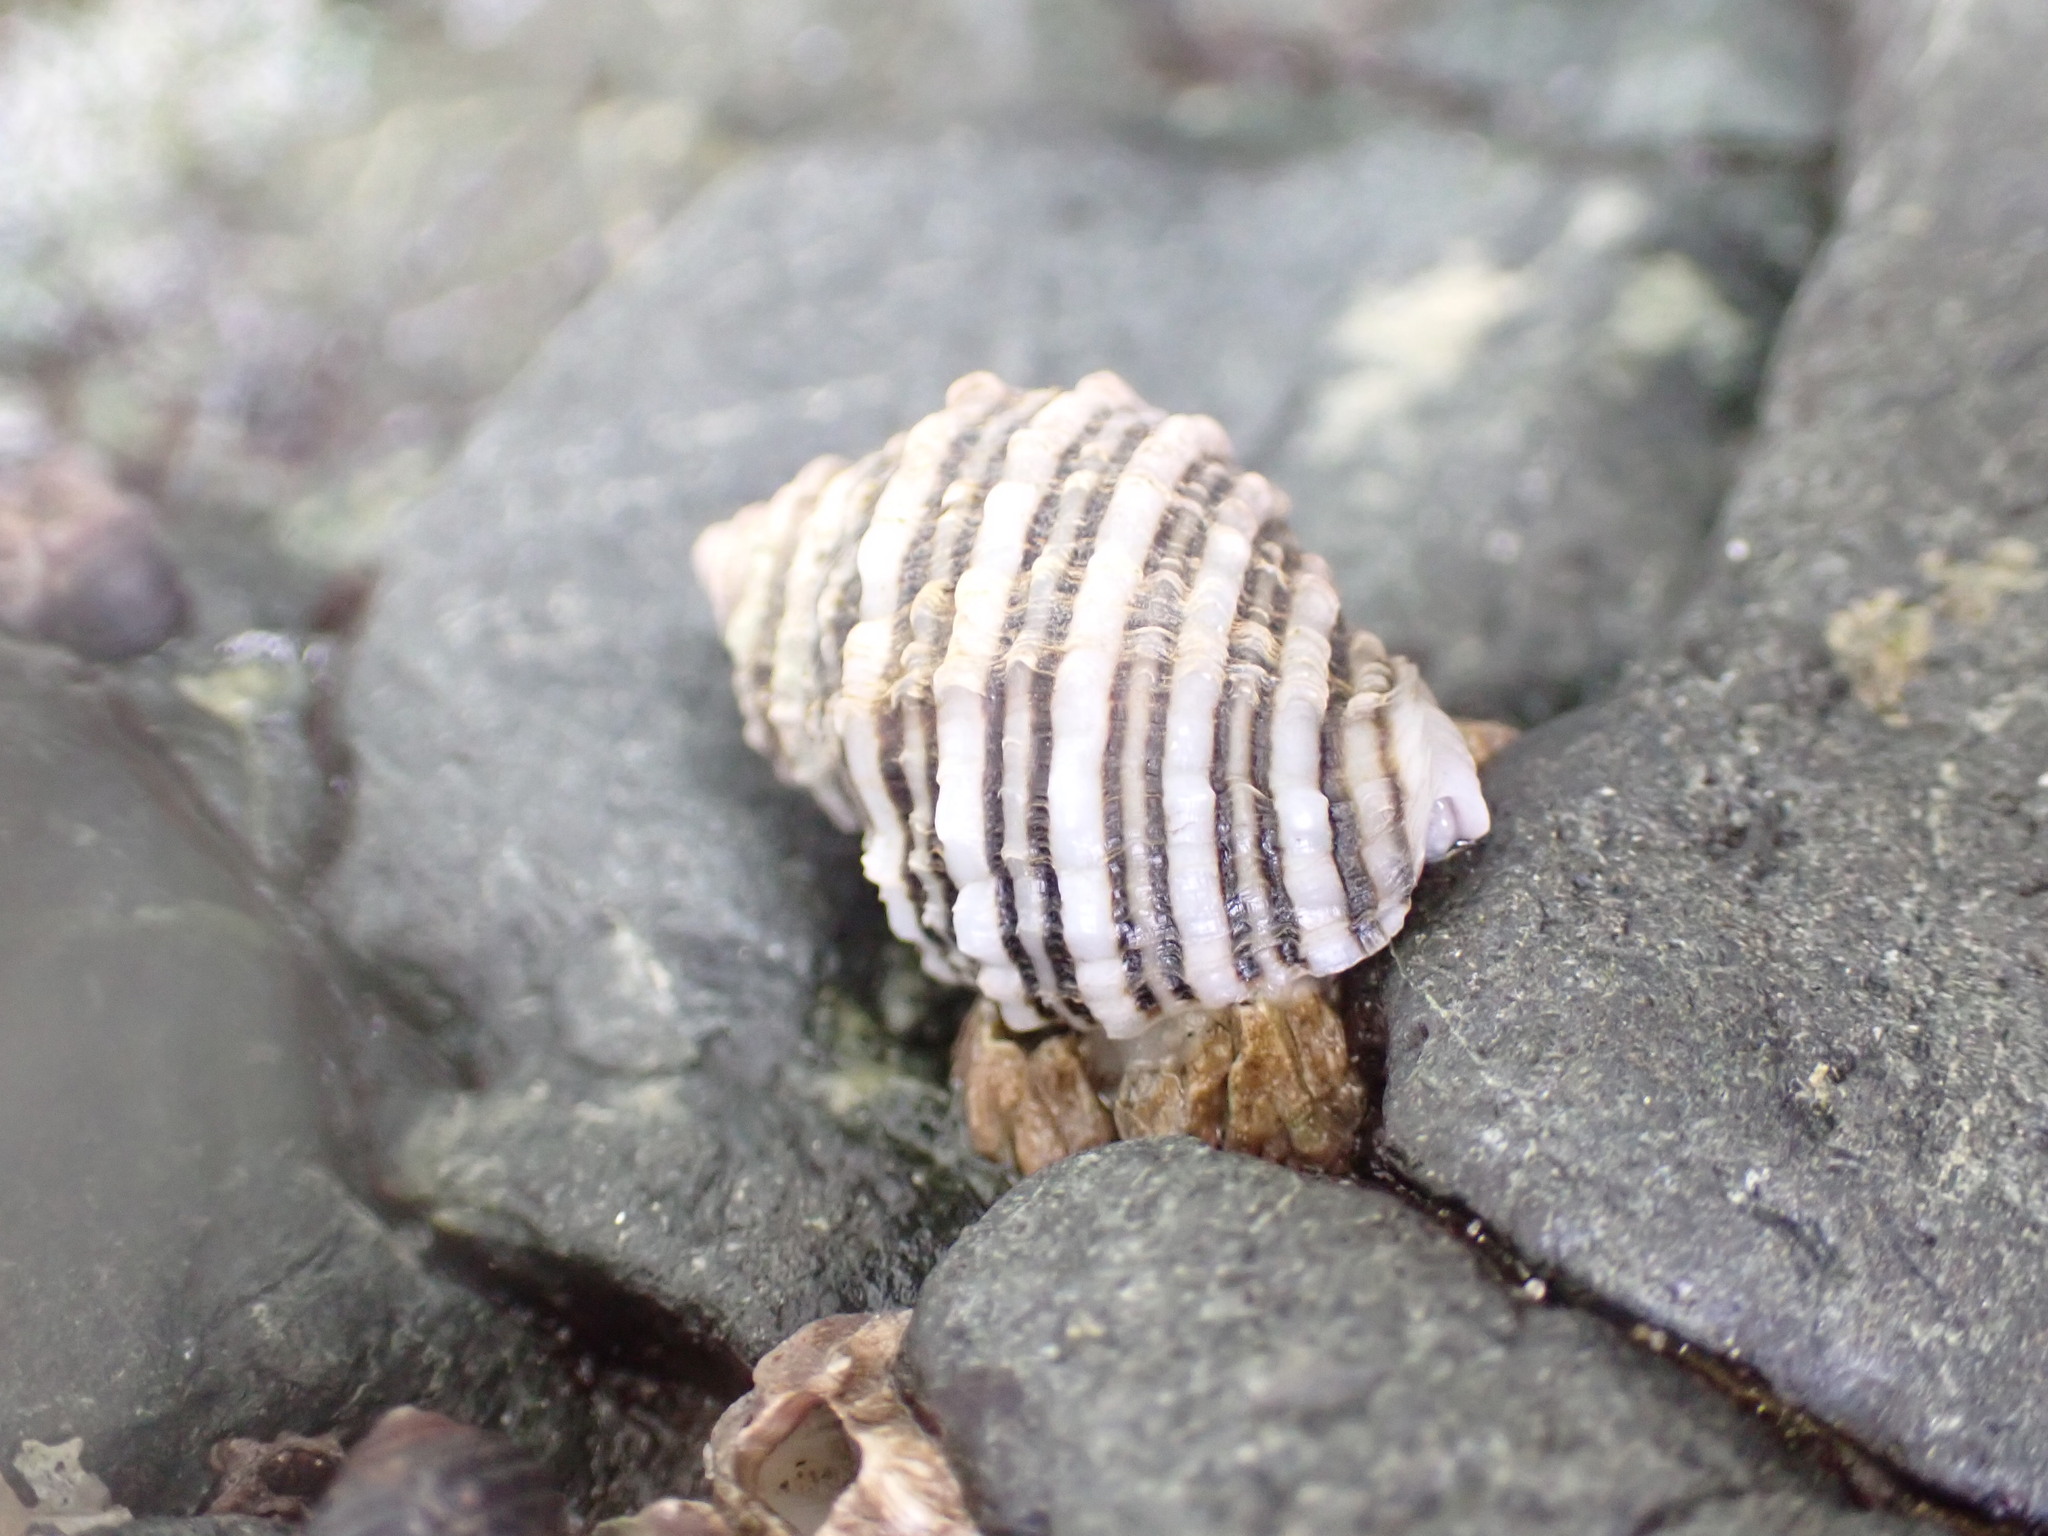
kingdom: Animalia
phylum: Mollusca
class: Gastropoda
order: Neogastropoda
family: Muricidae
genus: Nucella
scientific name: Nucella ostrina
